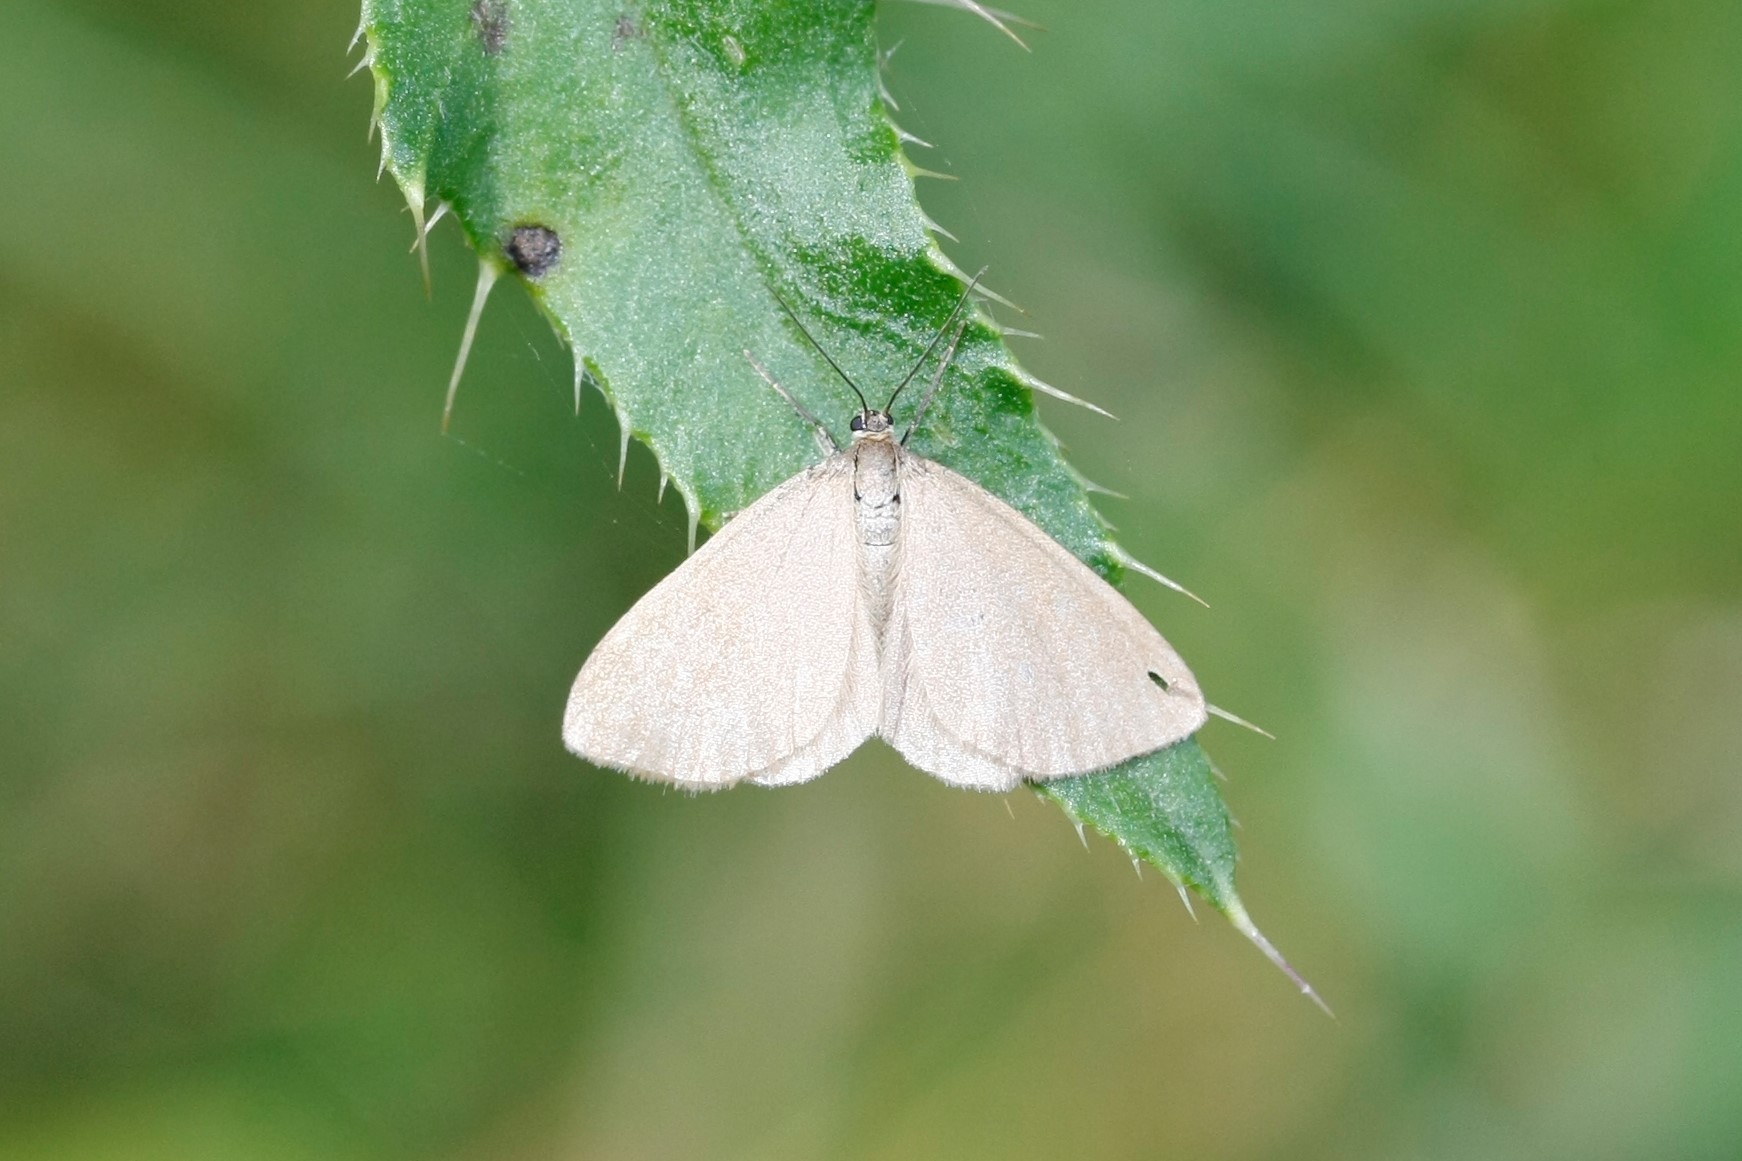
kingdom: Animalia
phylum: Arthropoda
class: Insecta
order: Lepidoptera
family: Geometridae
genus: Minoa
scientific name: Minoa murinata
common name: Drab looper
